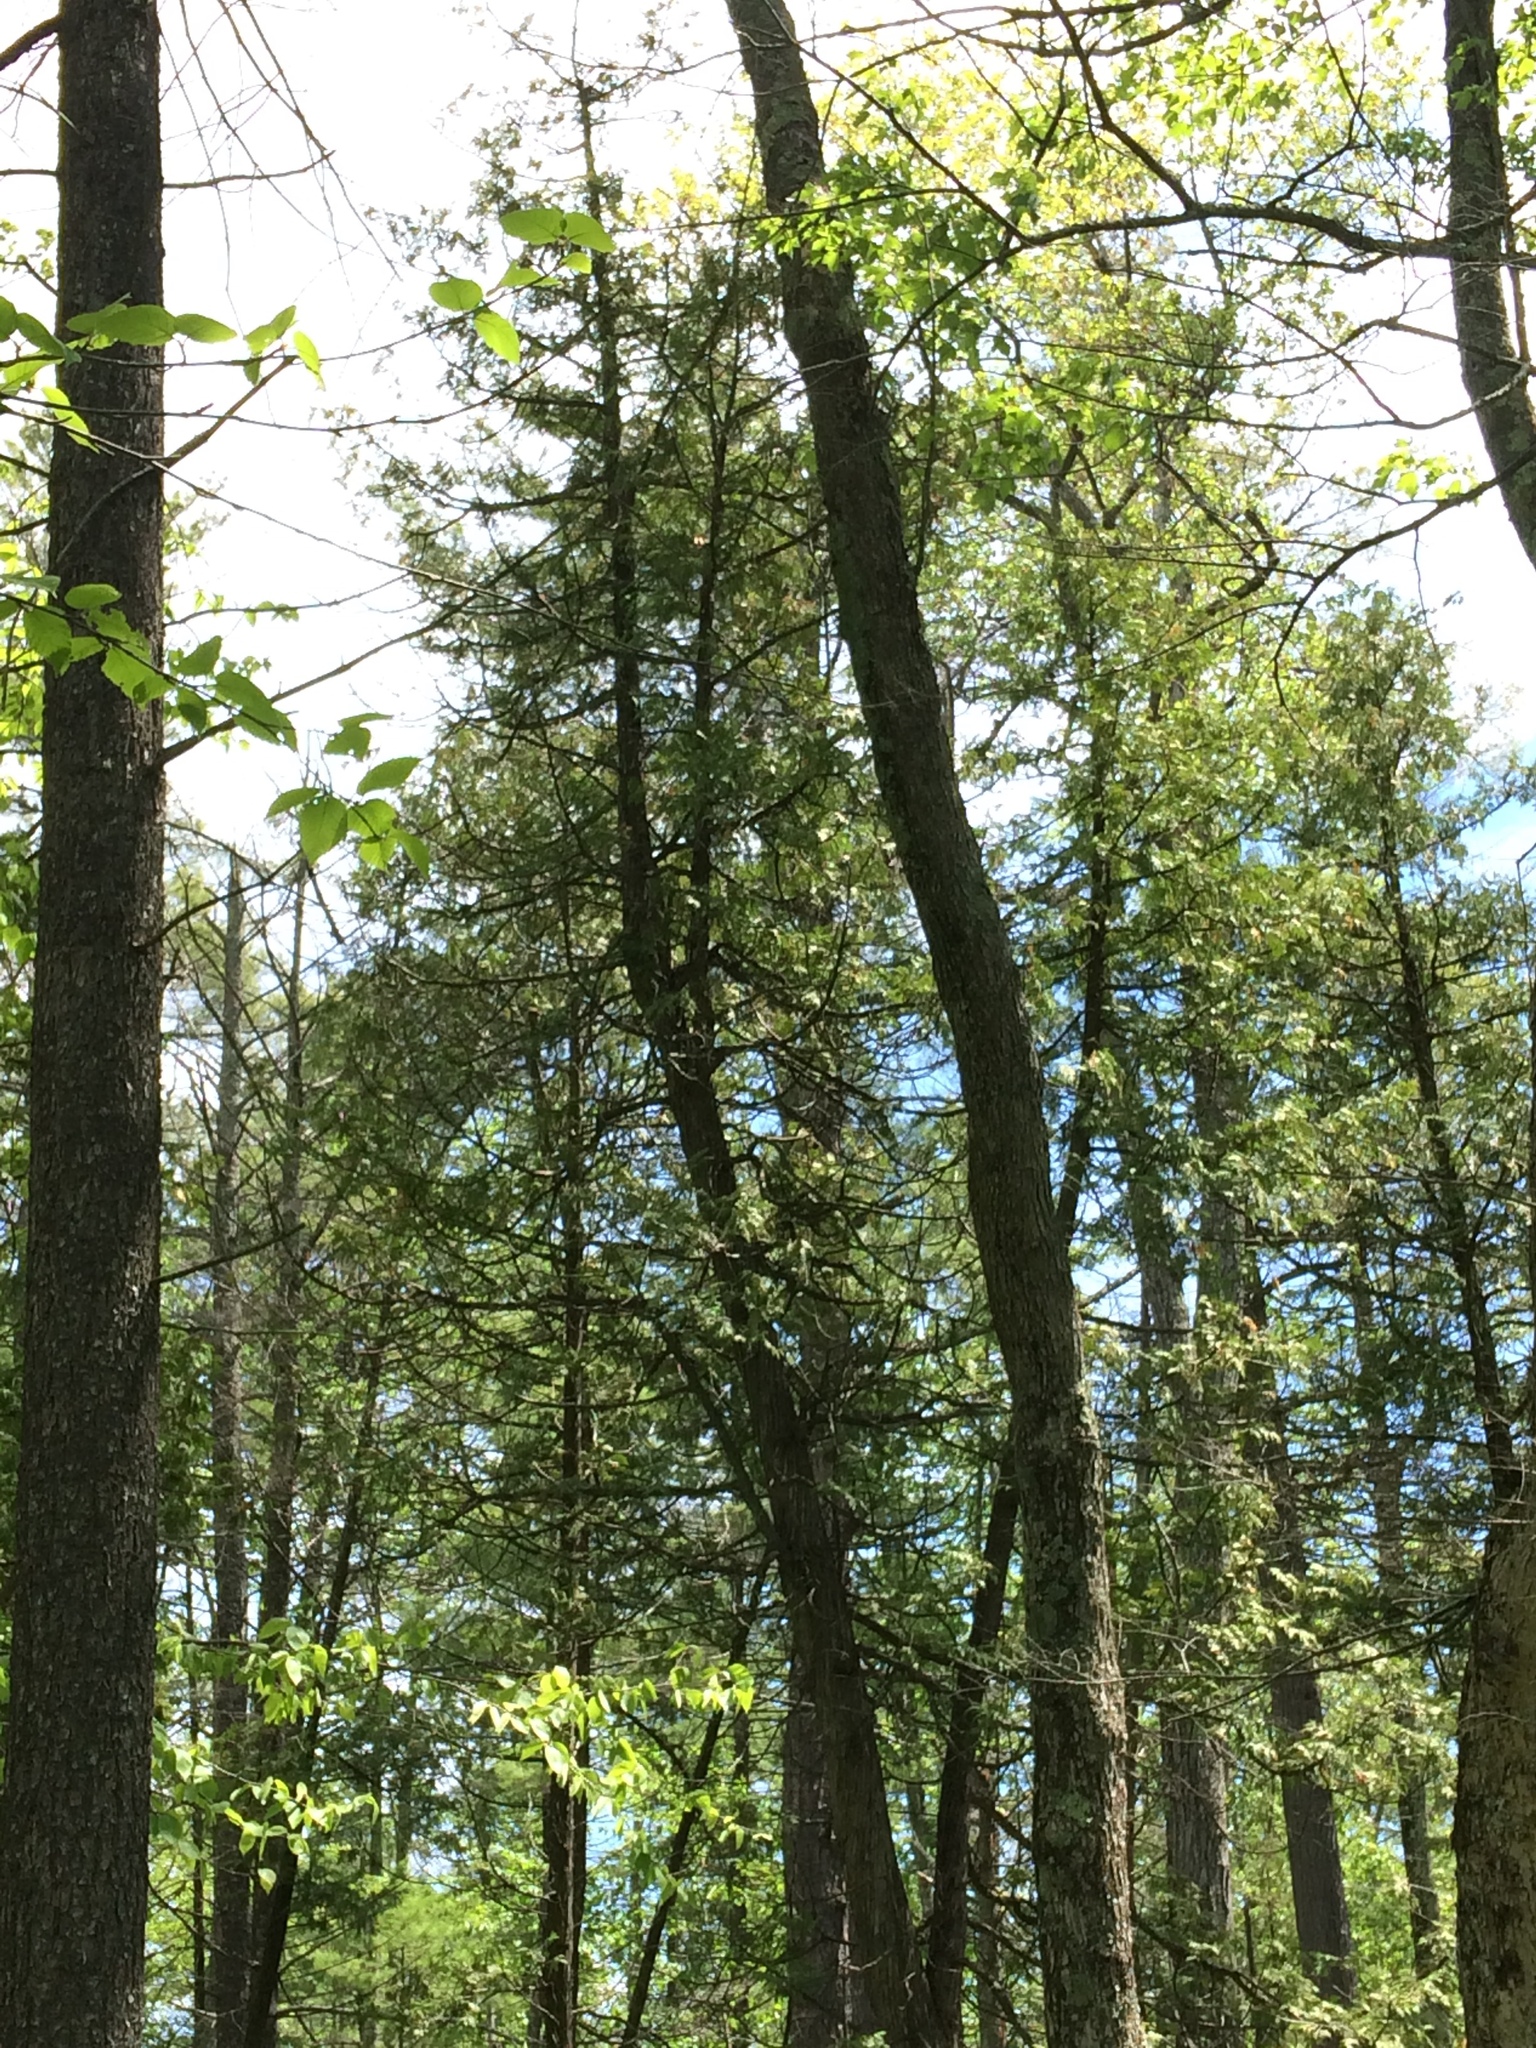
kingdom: Plantae
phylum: Tracheophyta
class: Pinopsida
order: Pinales
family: Cupressaceae
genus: Thuja
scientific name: Thuja occidentalis
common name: Northern white-cedar
